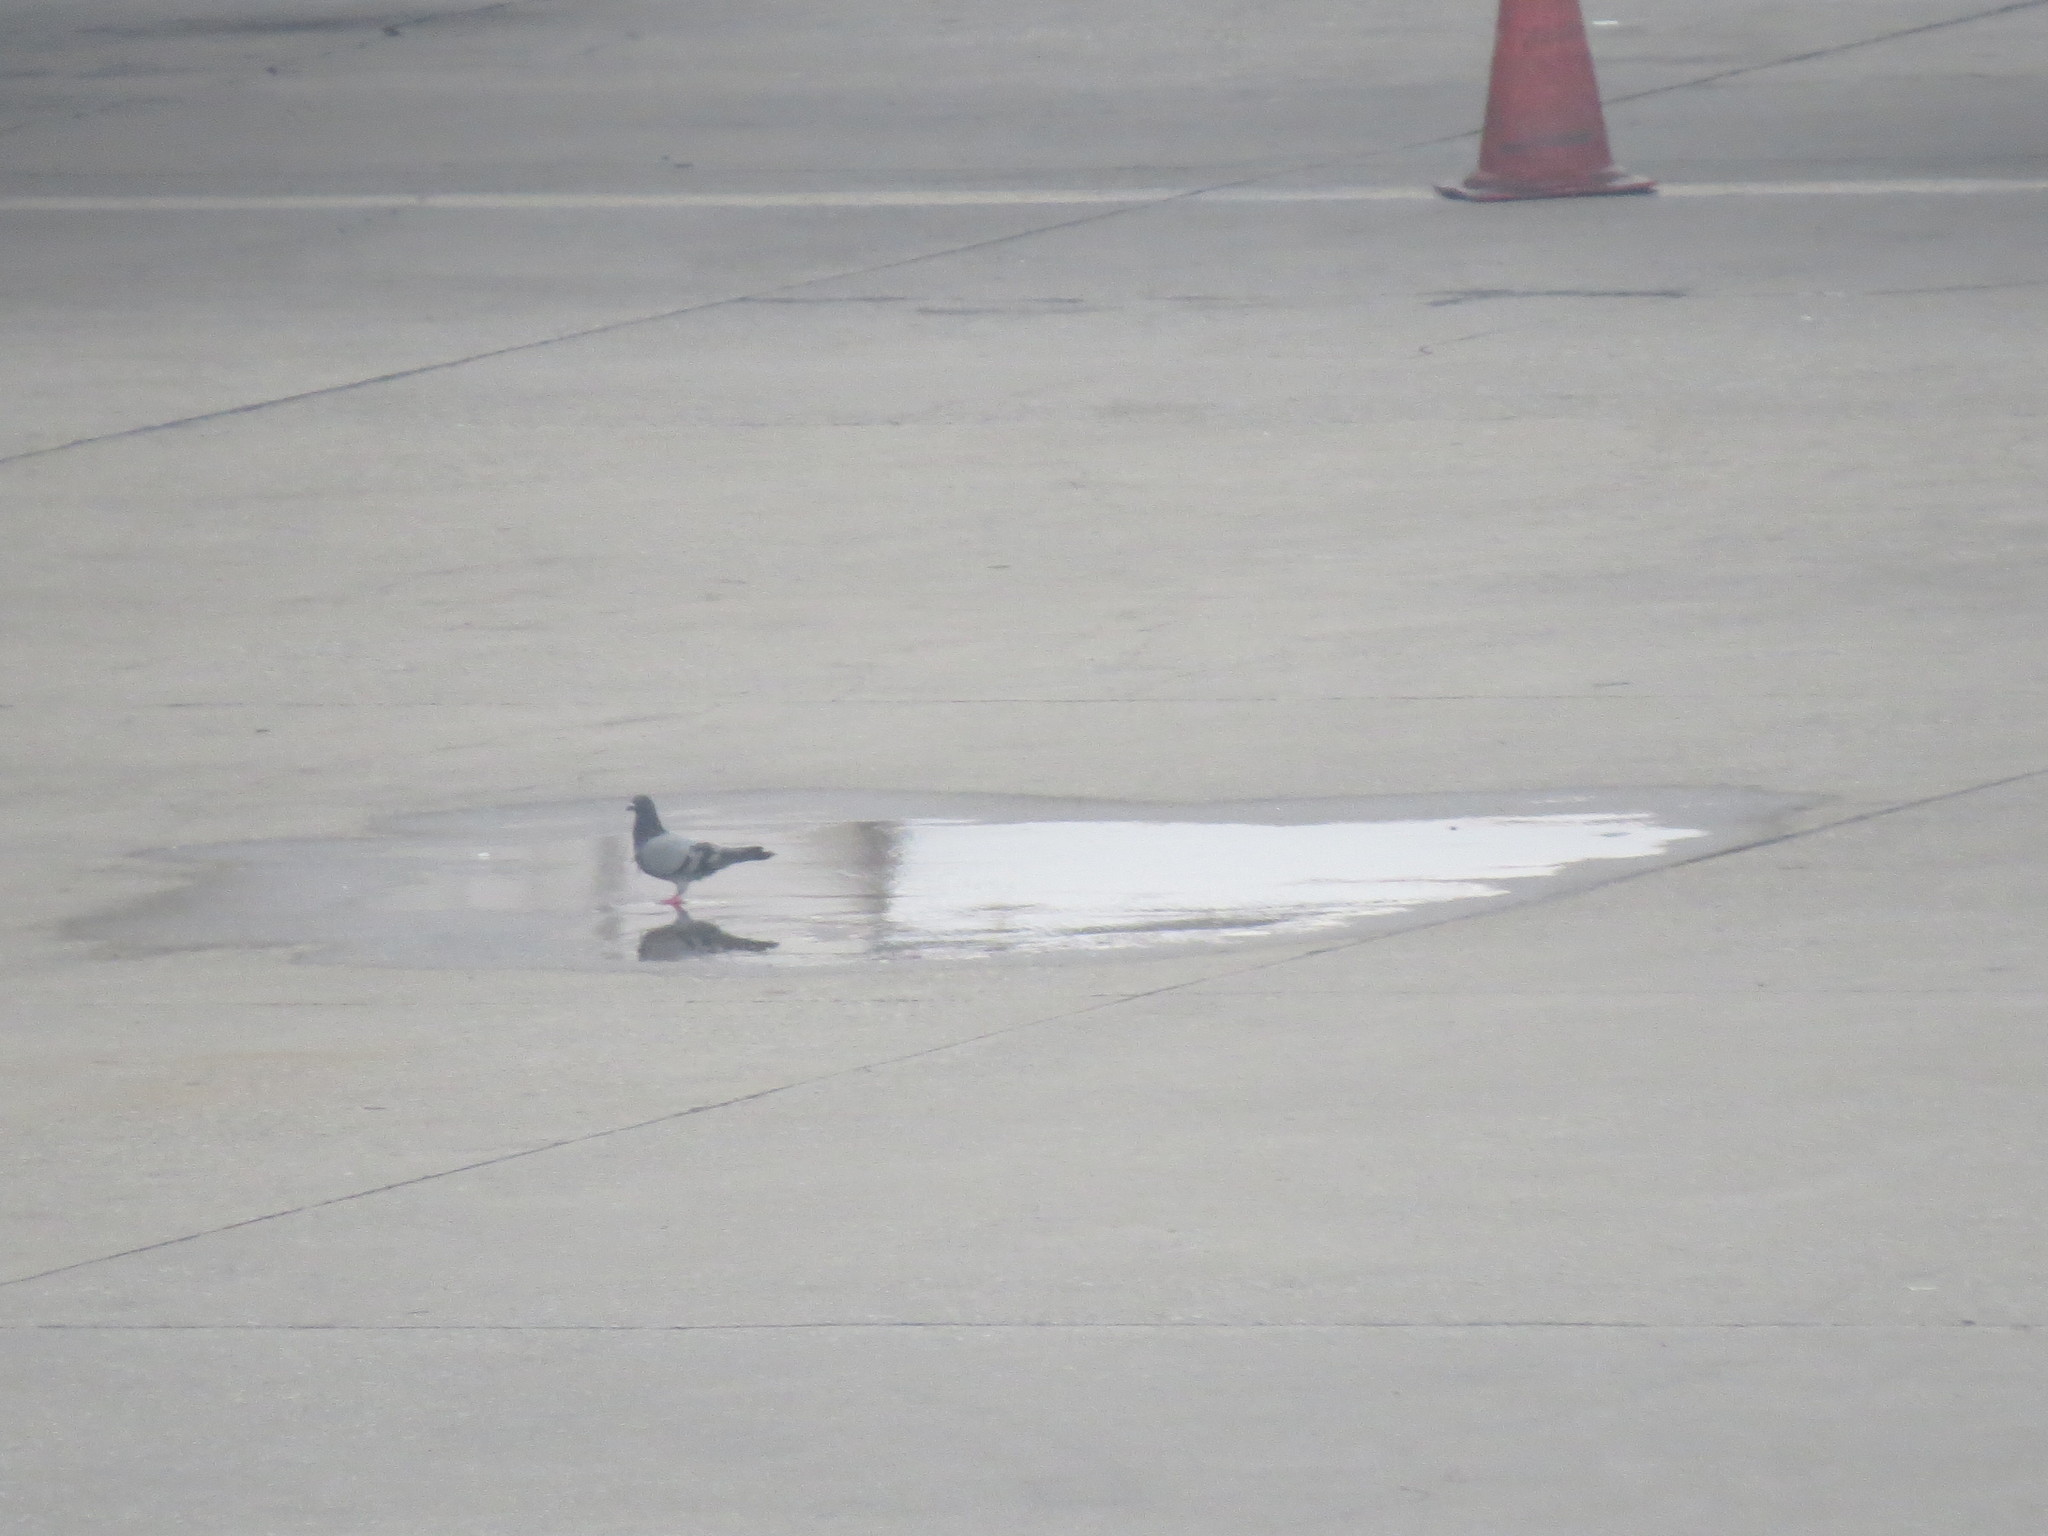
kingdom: Animalia
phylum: Chordata
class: Aves
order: Columbiformes
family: Columbidae
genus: Columba
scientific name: Columba livia
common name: Rock pigeon
